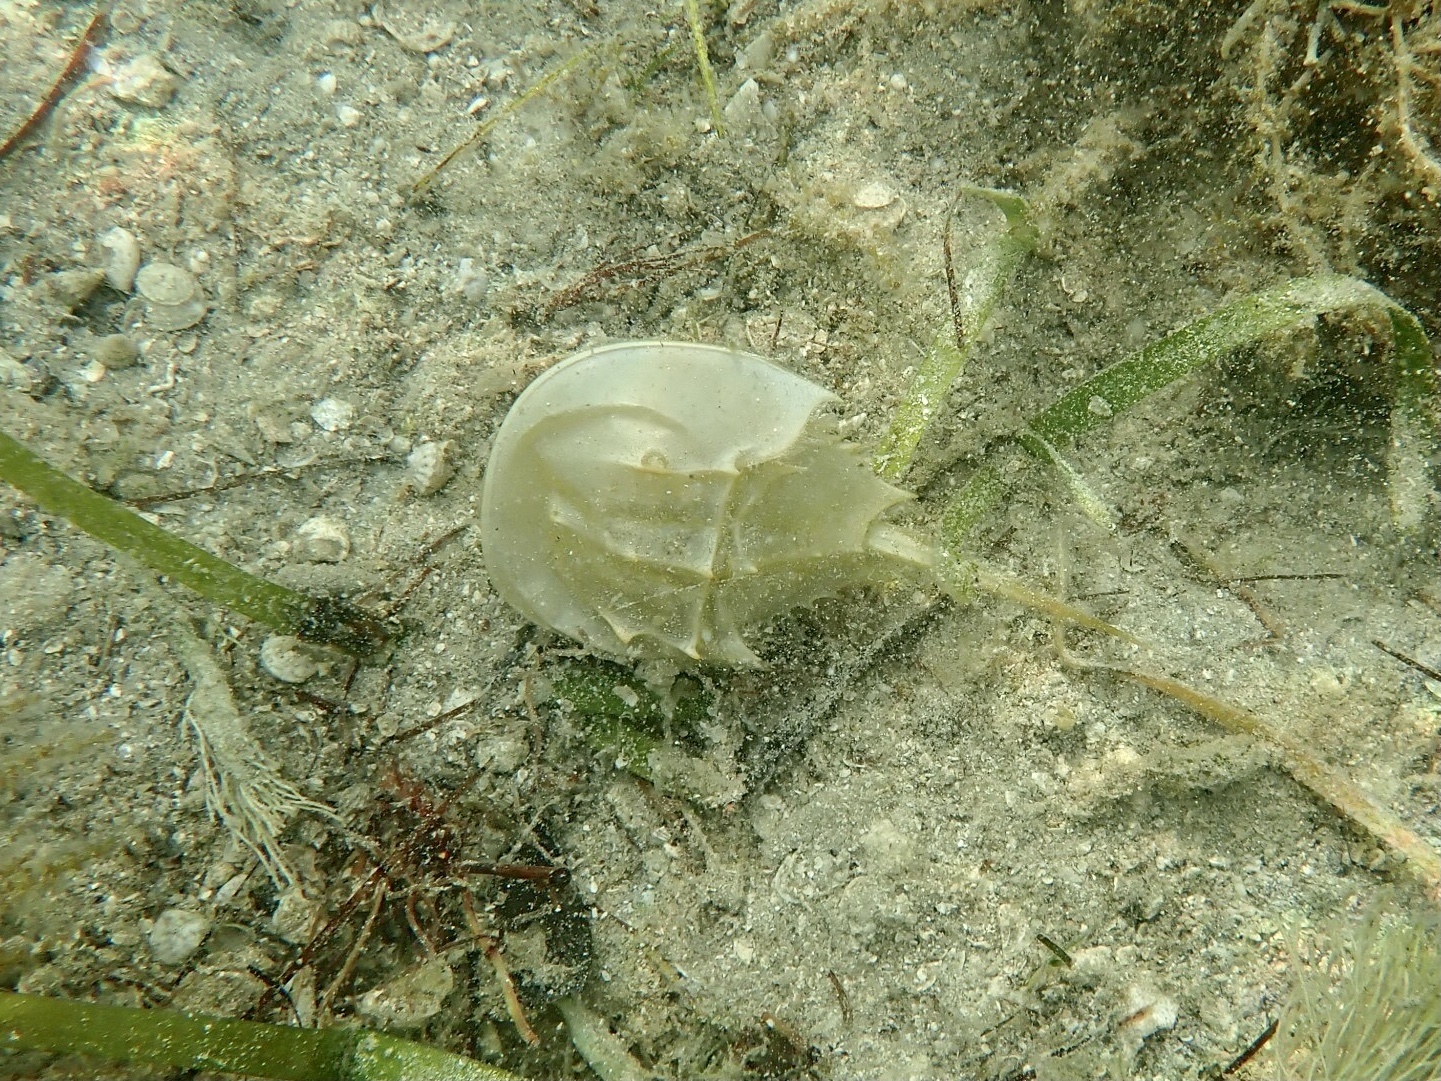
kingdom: Animalia
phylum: Arthropoda
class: Merostomata
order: Xiphosurida
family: Limulidae
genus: Limulus
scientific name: Limulus polyphemus
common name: Horseshoe crab
